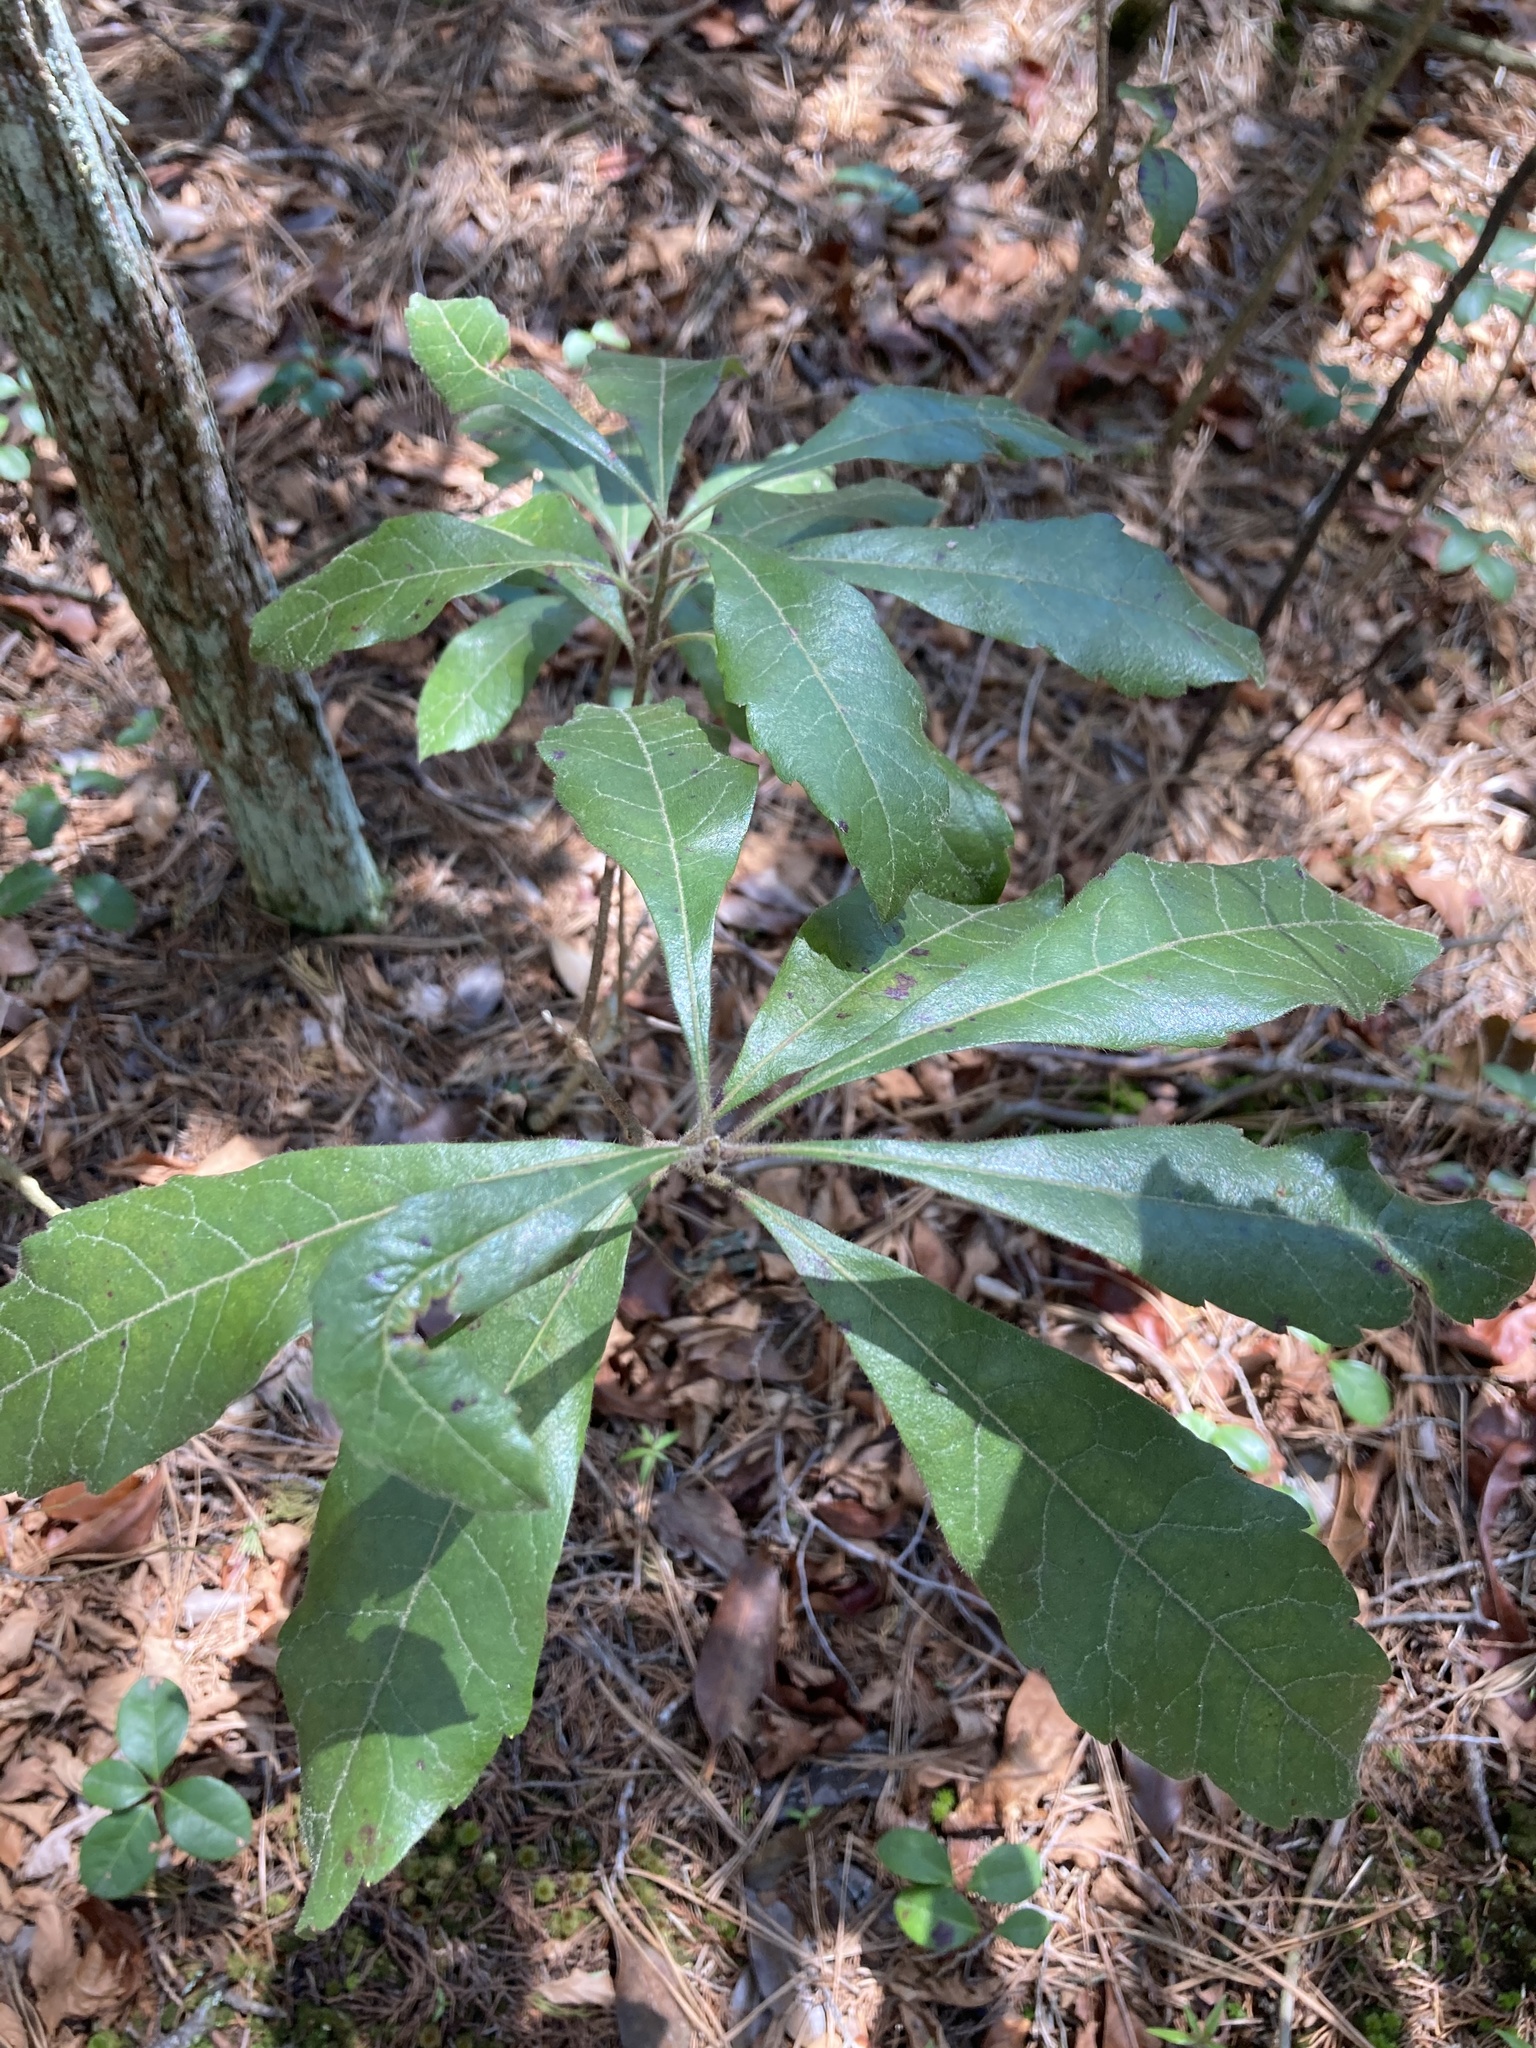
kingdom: Plantae
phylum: Tracheophyta
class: Magnoliopsida
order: Fagales
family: Myricaceae
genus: Morella
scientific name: Morella caroliniensis
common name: Evergreen bayberry
